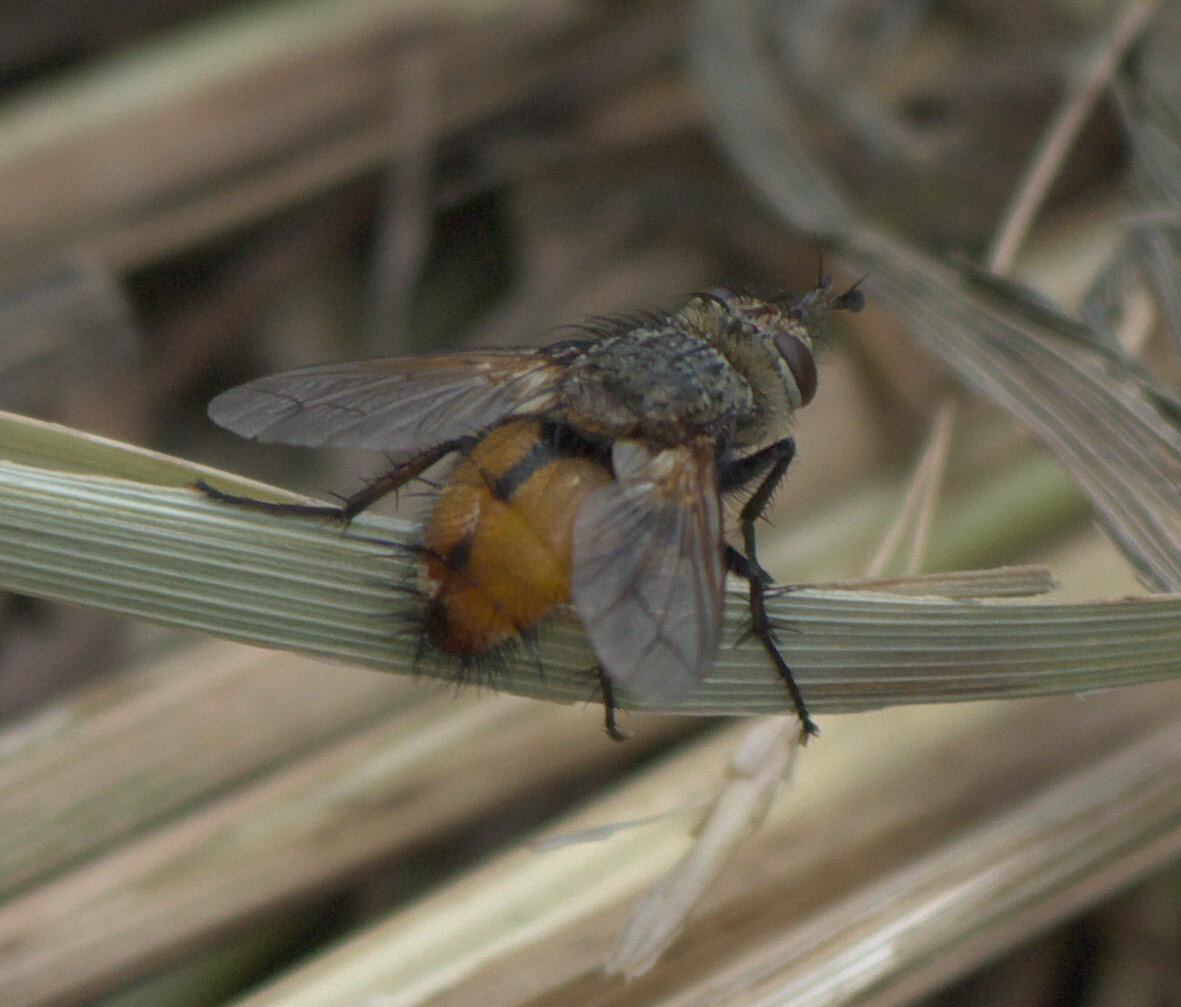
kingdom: Animalia
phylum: Arthropoda
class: Insecta
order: Diptera
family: Tachinidae
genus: Peleteria
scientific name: Peleteria iterans
